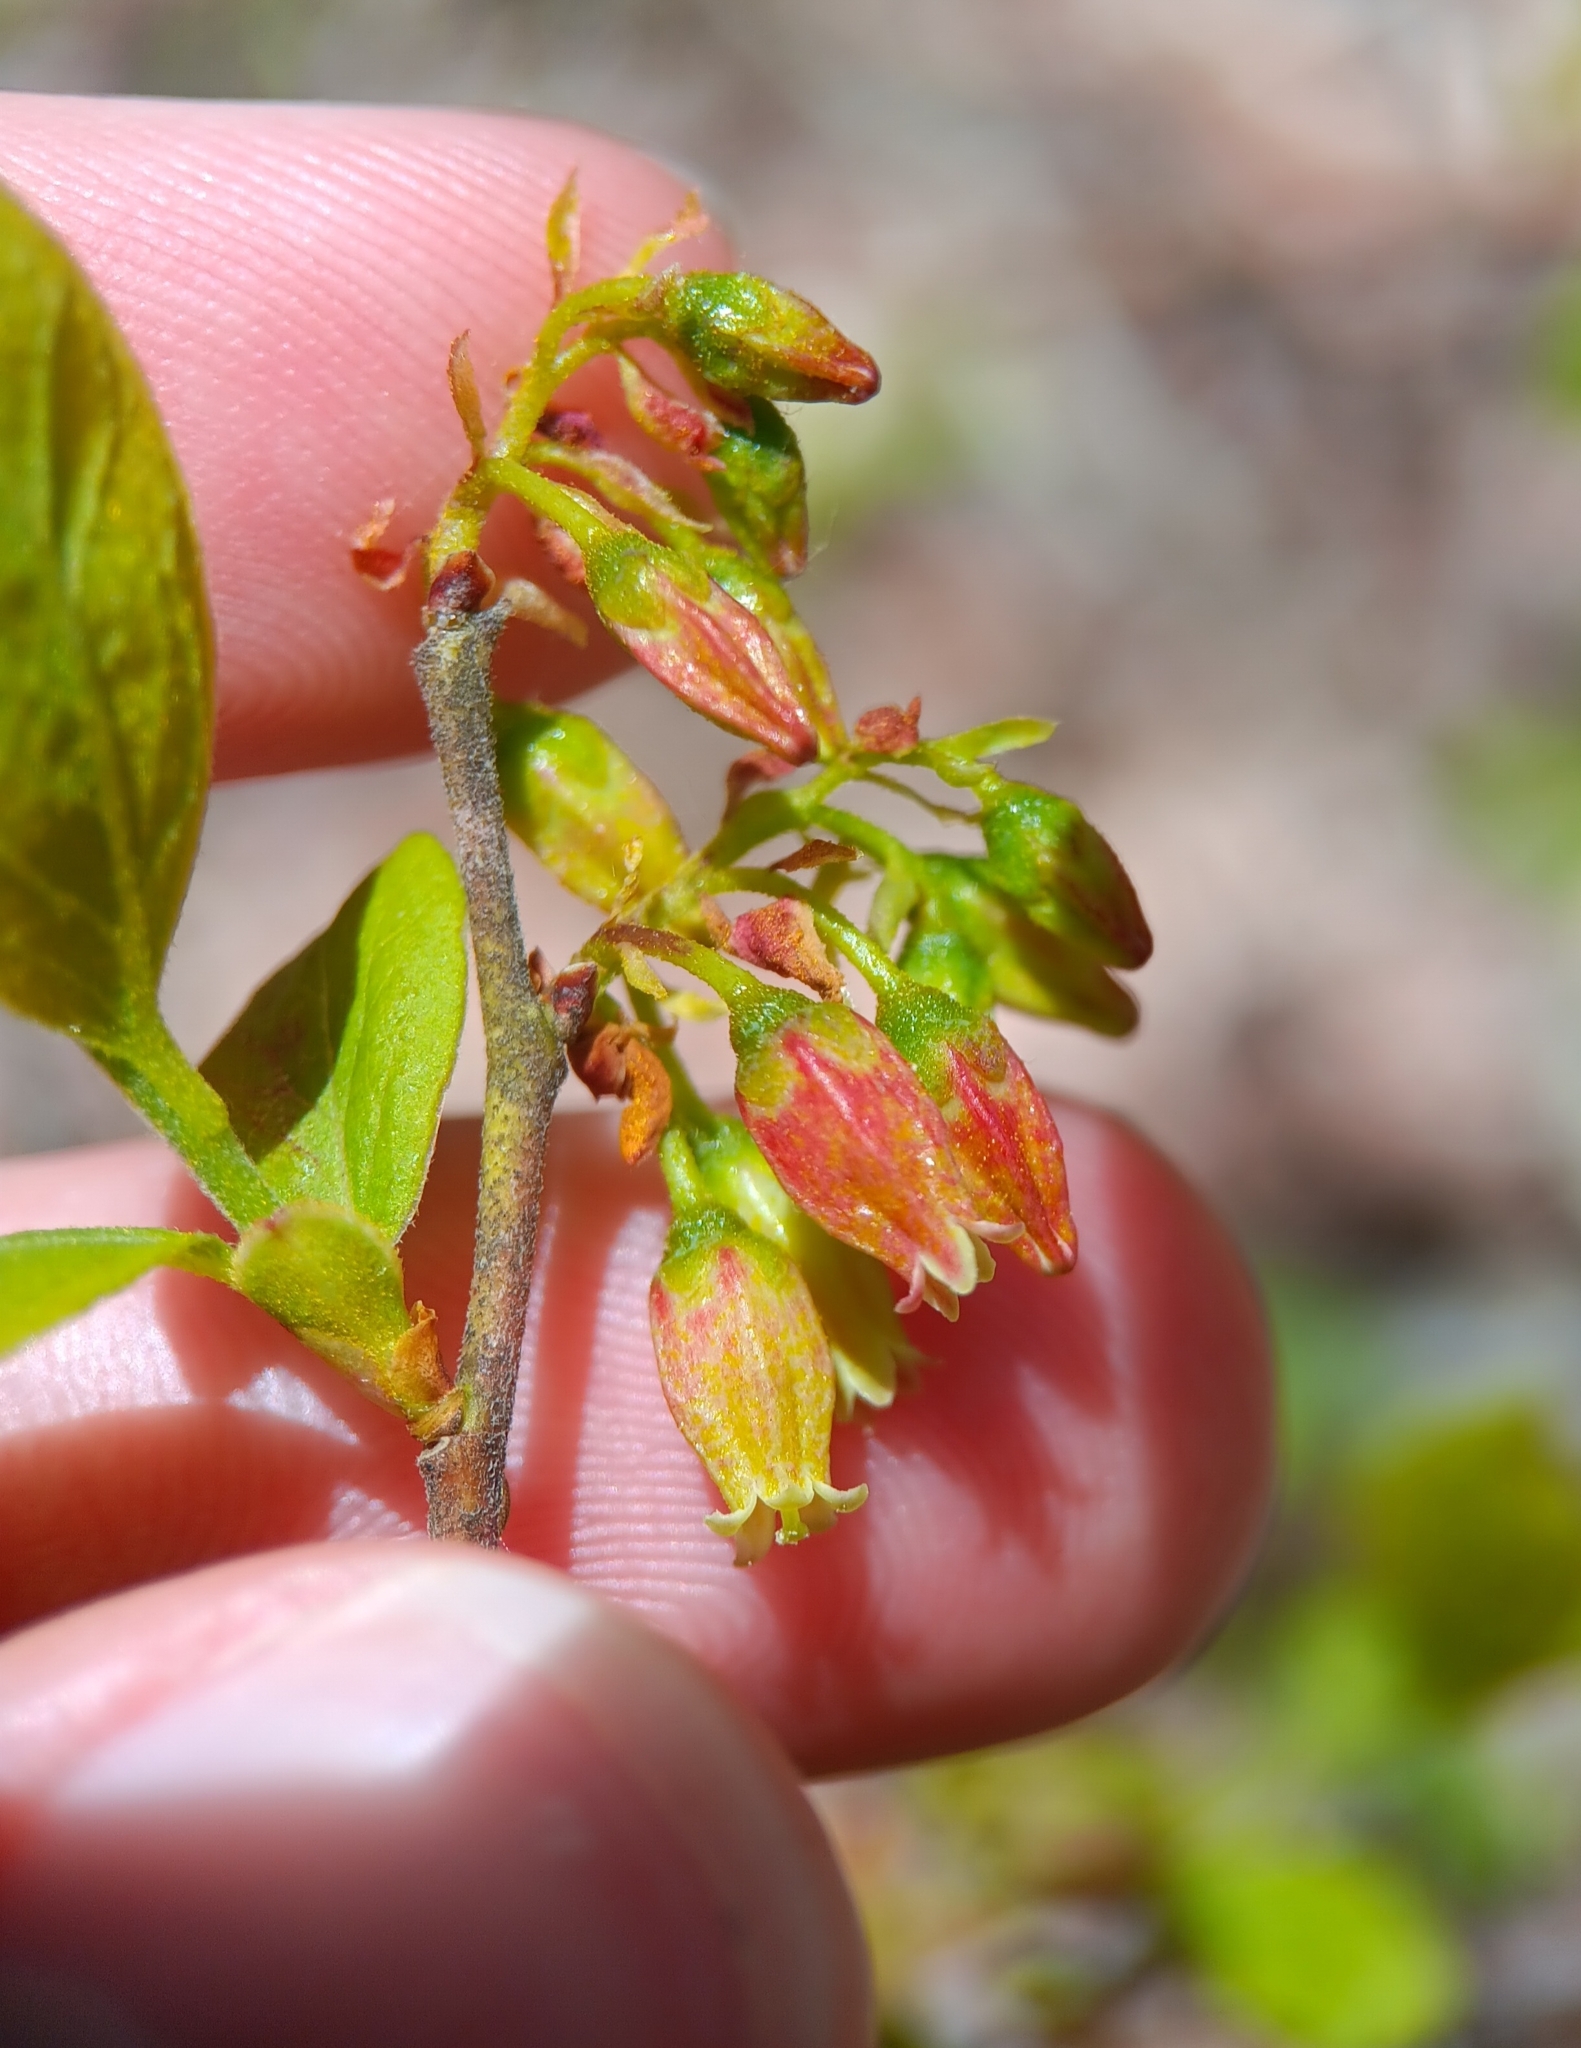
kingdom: Plantae
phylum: Tracheophyta
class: Magnoliopsida
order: Ericales
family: Ericaceae
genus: Gaylussacia
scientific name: Gaylussacia baccata
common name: Black huckleberry
